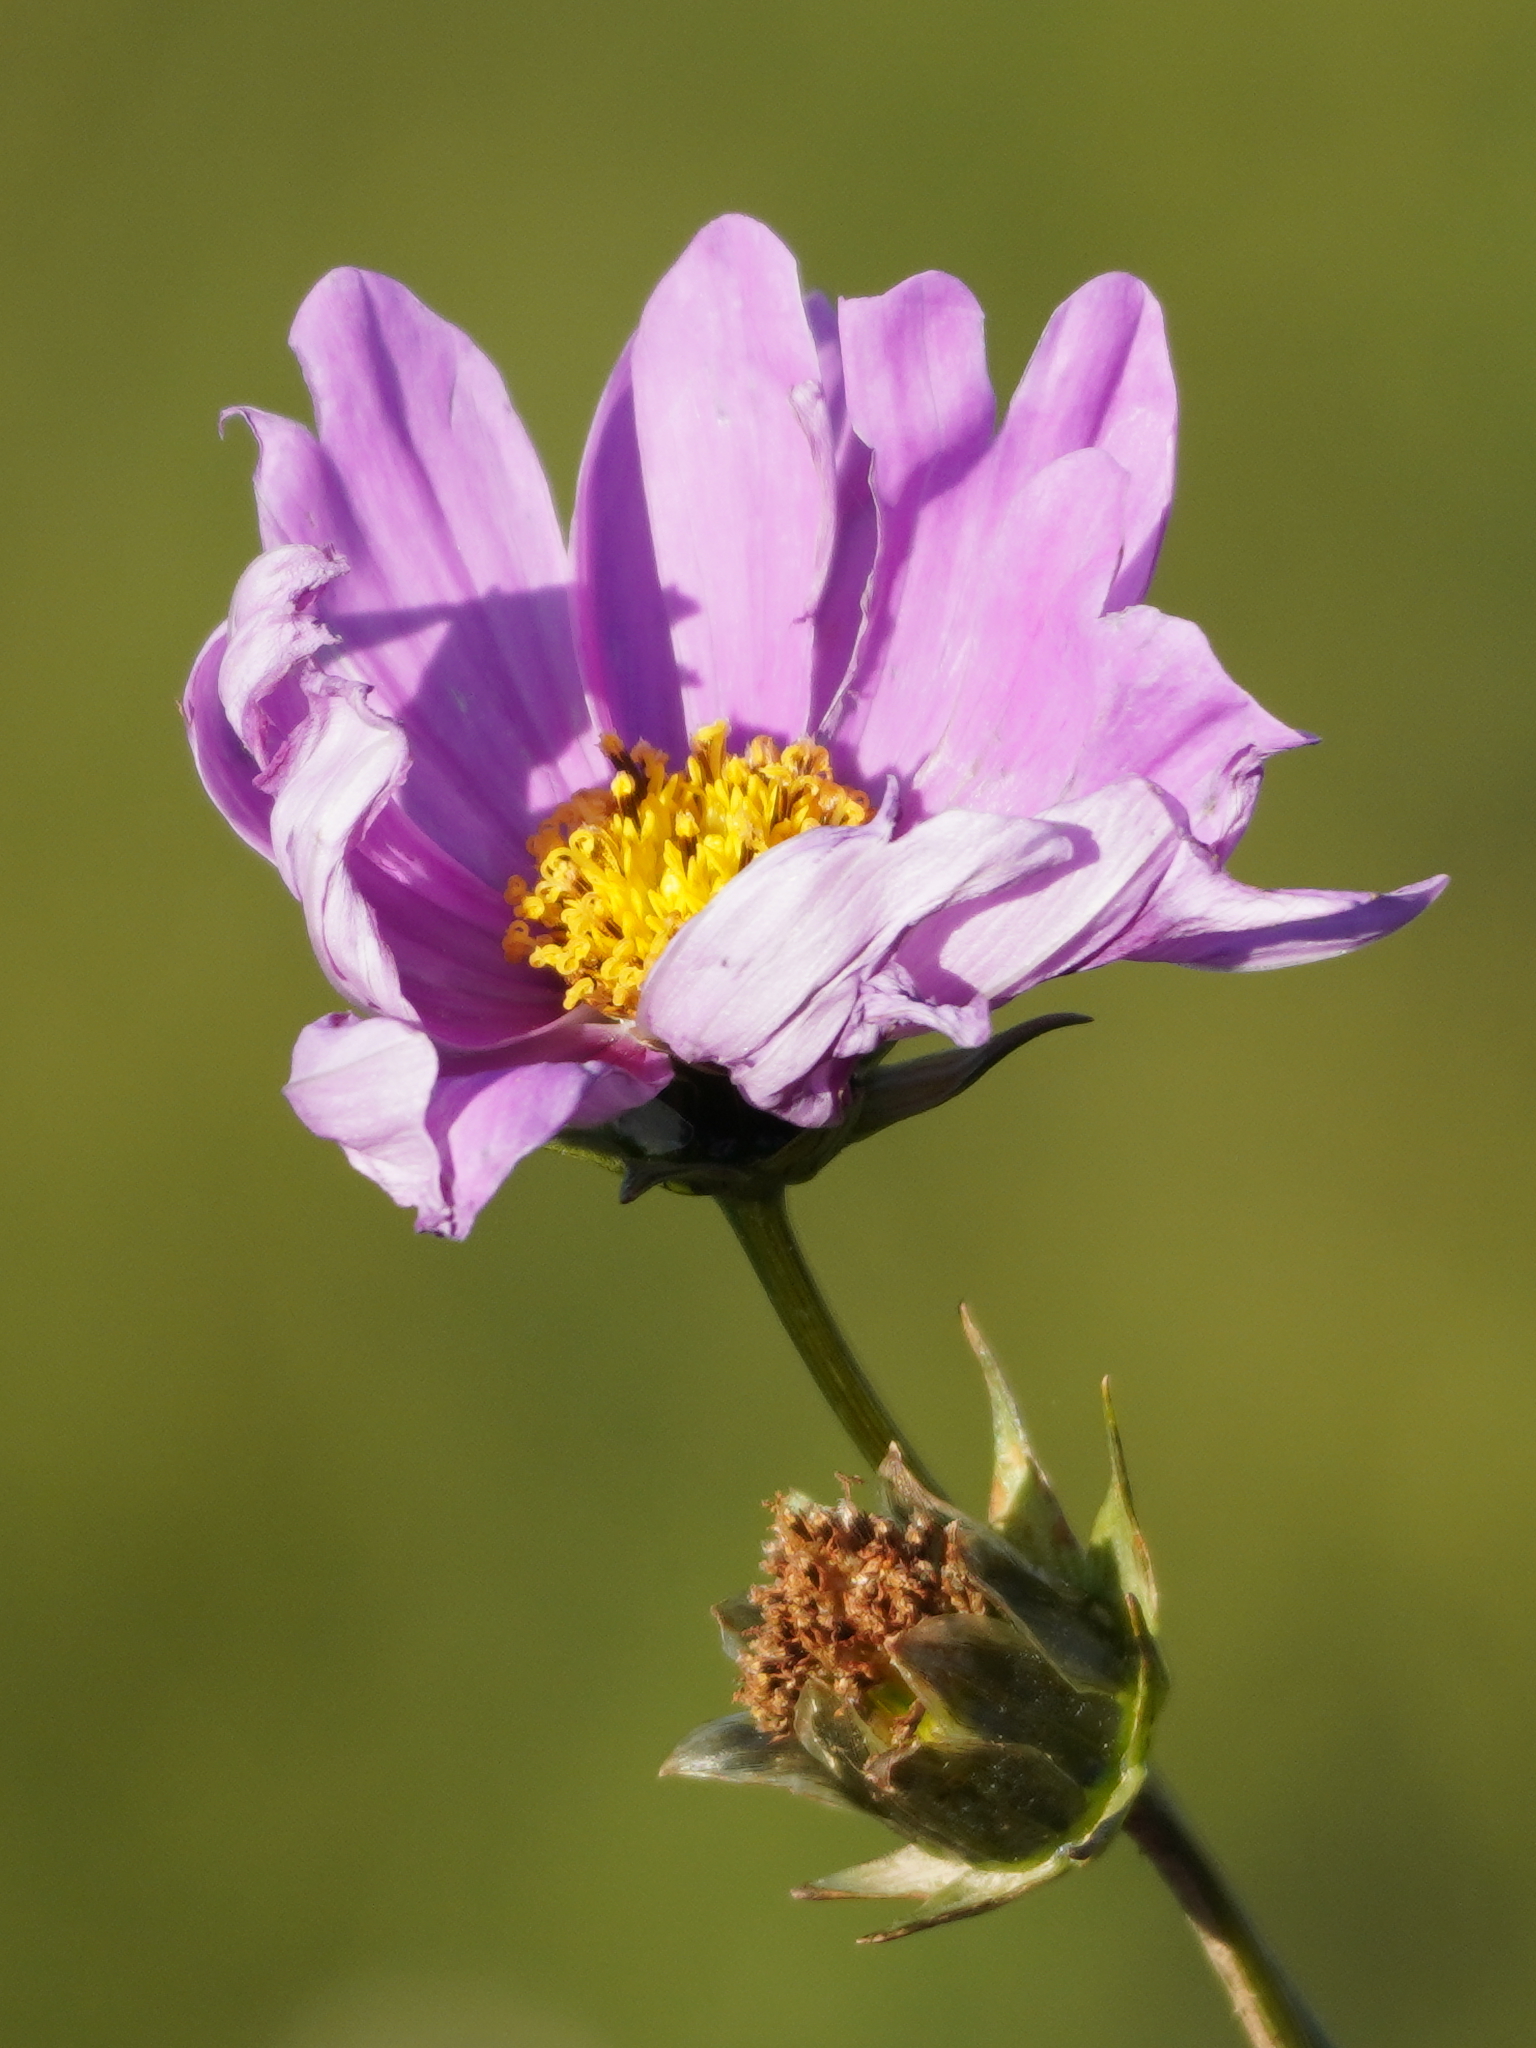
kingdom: Plantae
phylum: Tracheophyta
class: Magnoliopsida
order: Asterales
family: Asteraceae
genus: Cosmos
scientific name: Cosmos bipinnatus
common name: Garden cosmos
